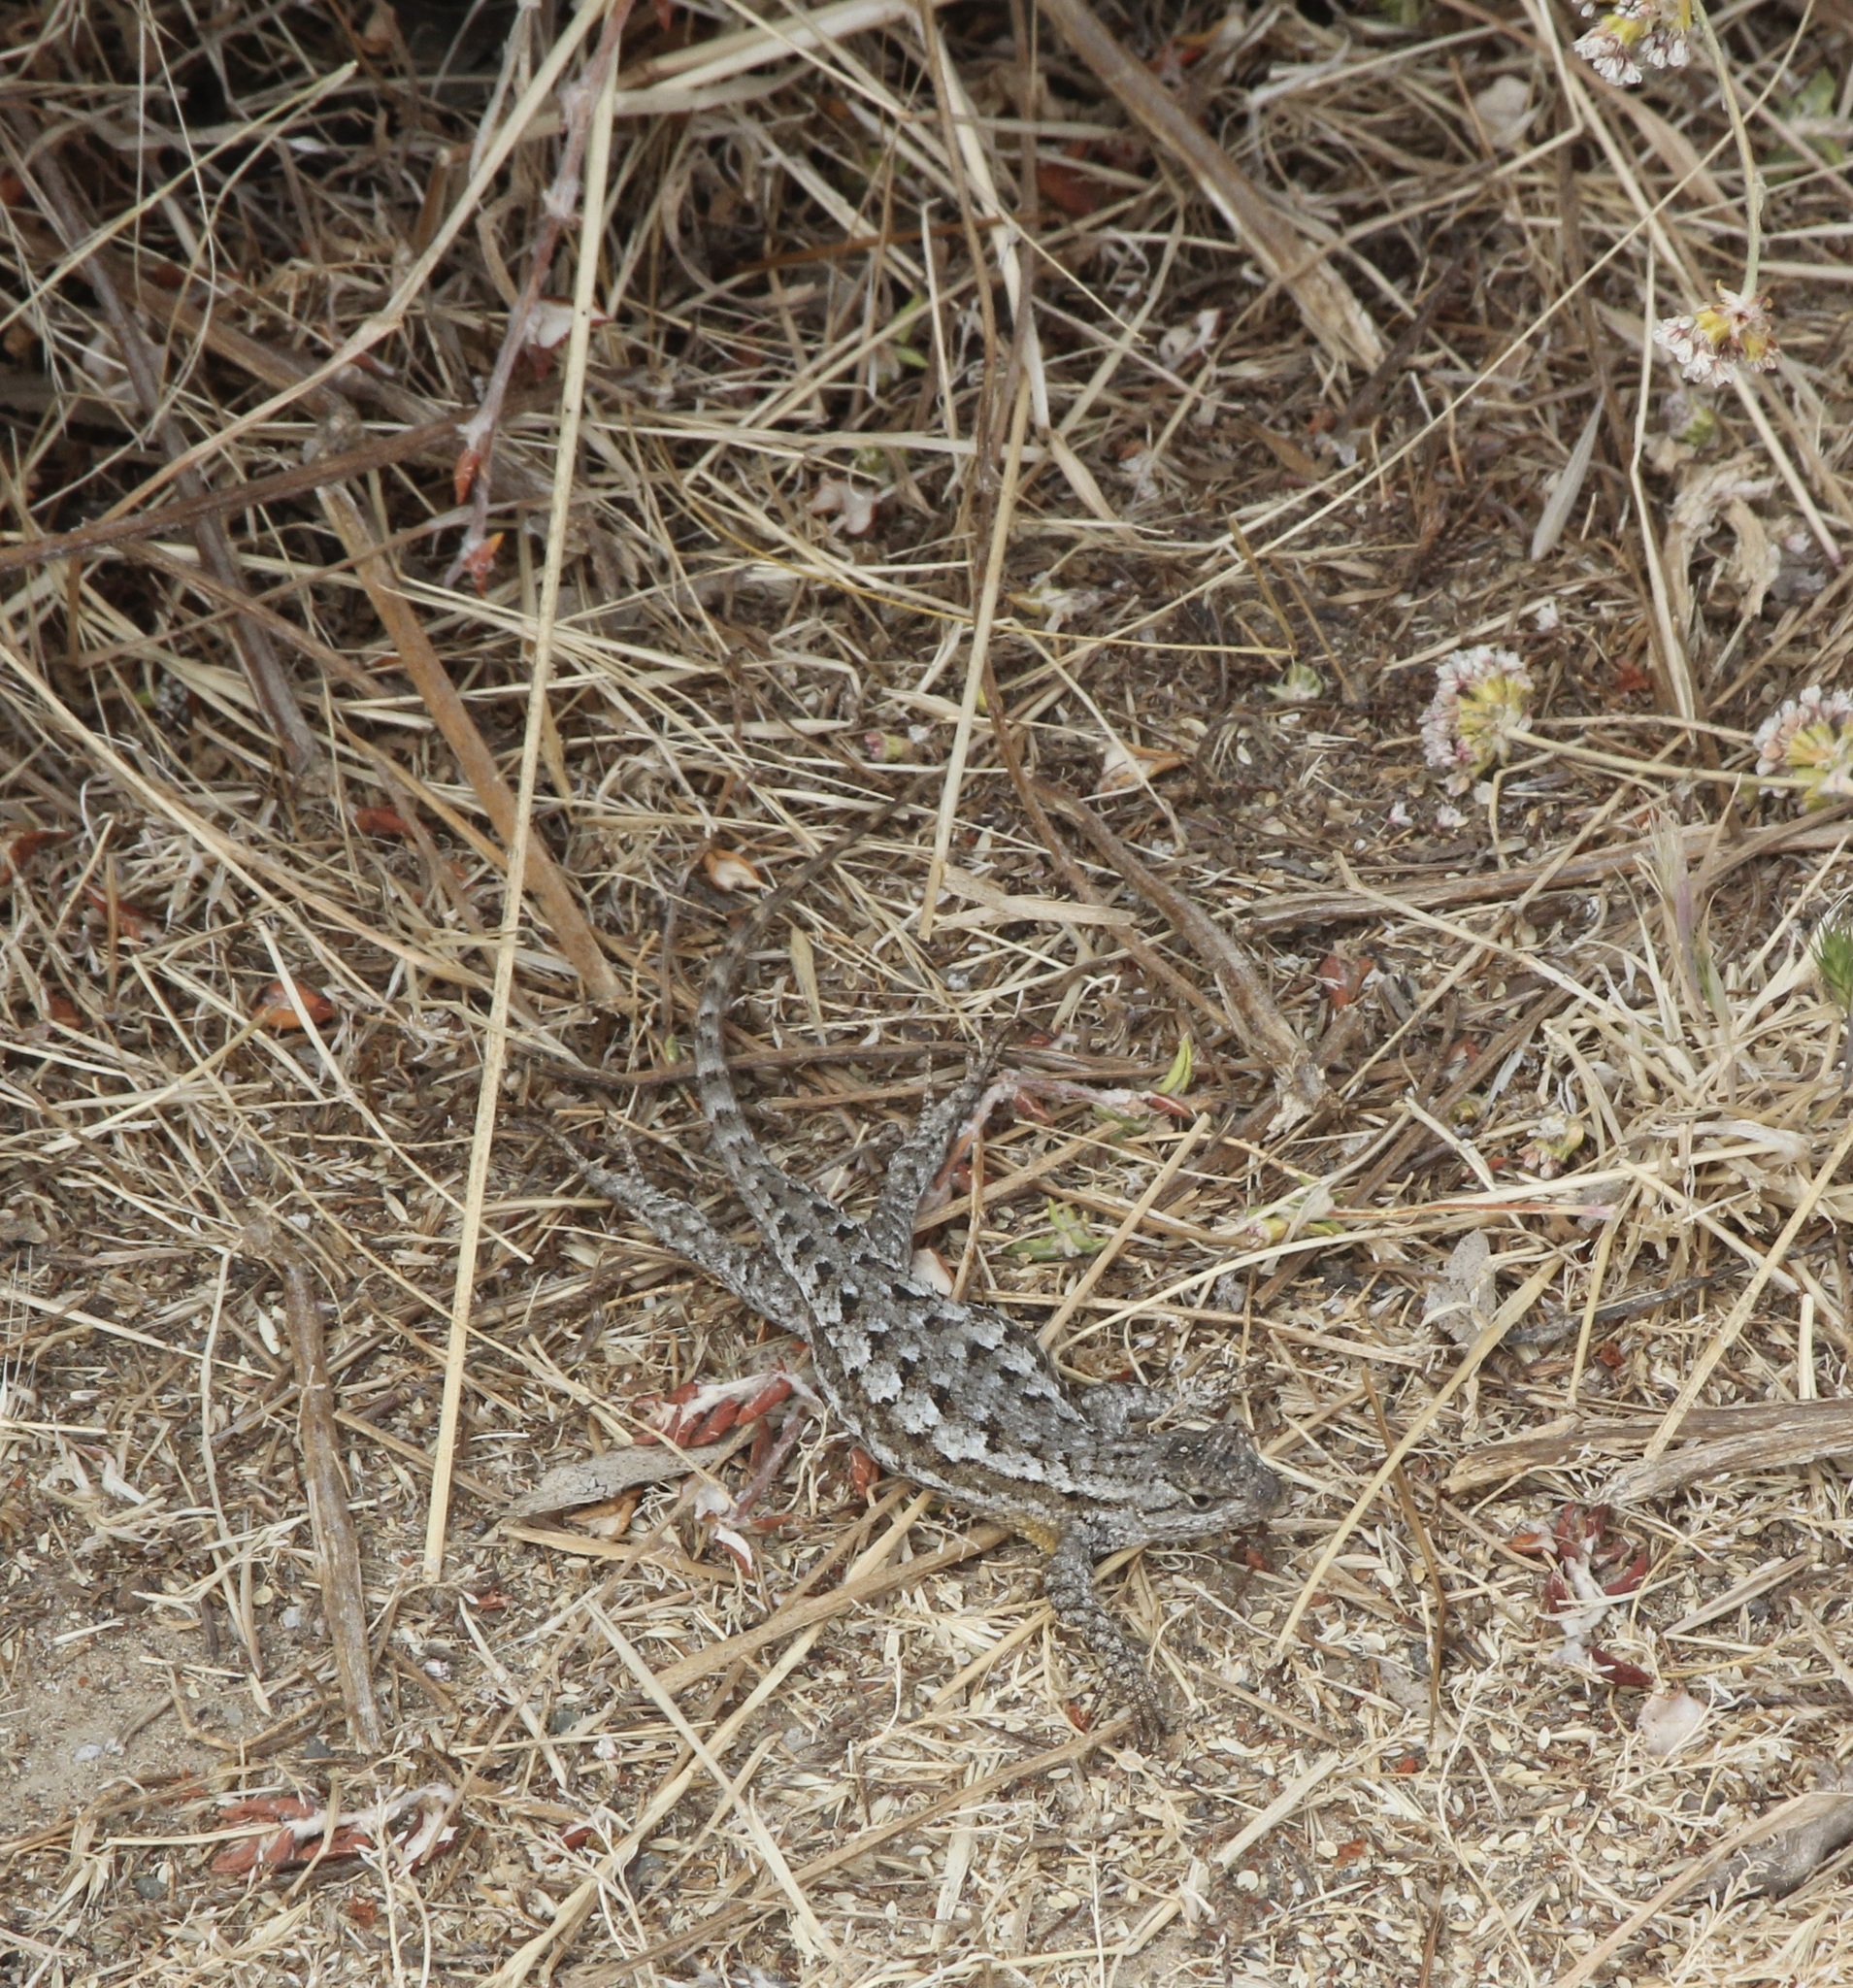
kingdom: Animalia
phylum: Chordata
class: Squamata
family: Phrynosomatidae
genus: Sceloporus
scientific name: Sceloporus occidentalis
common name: Western fence lizard
